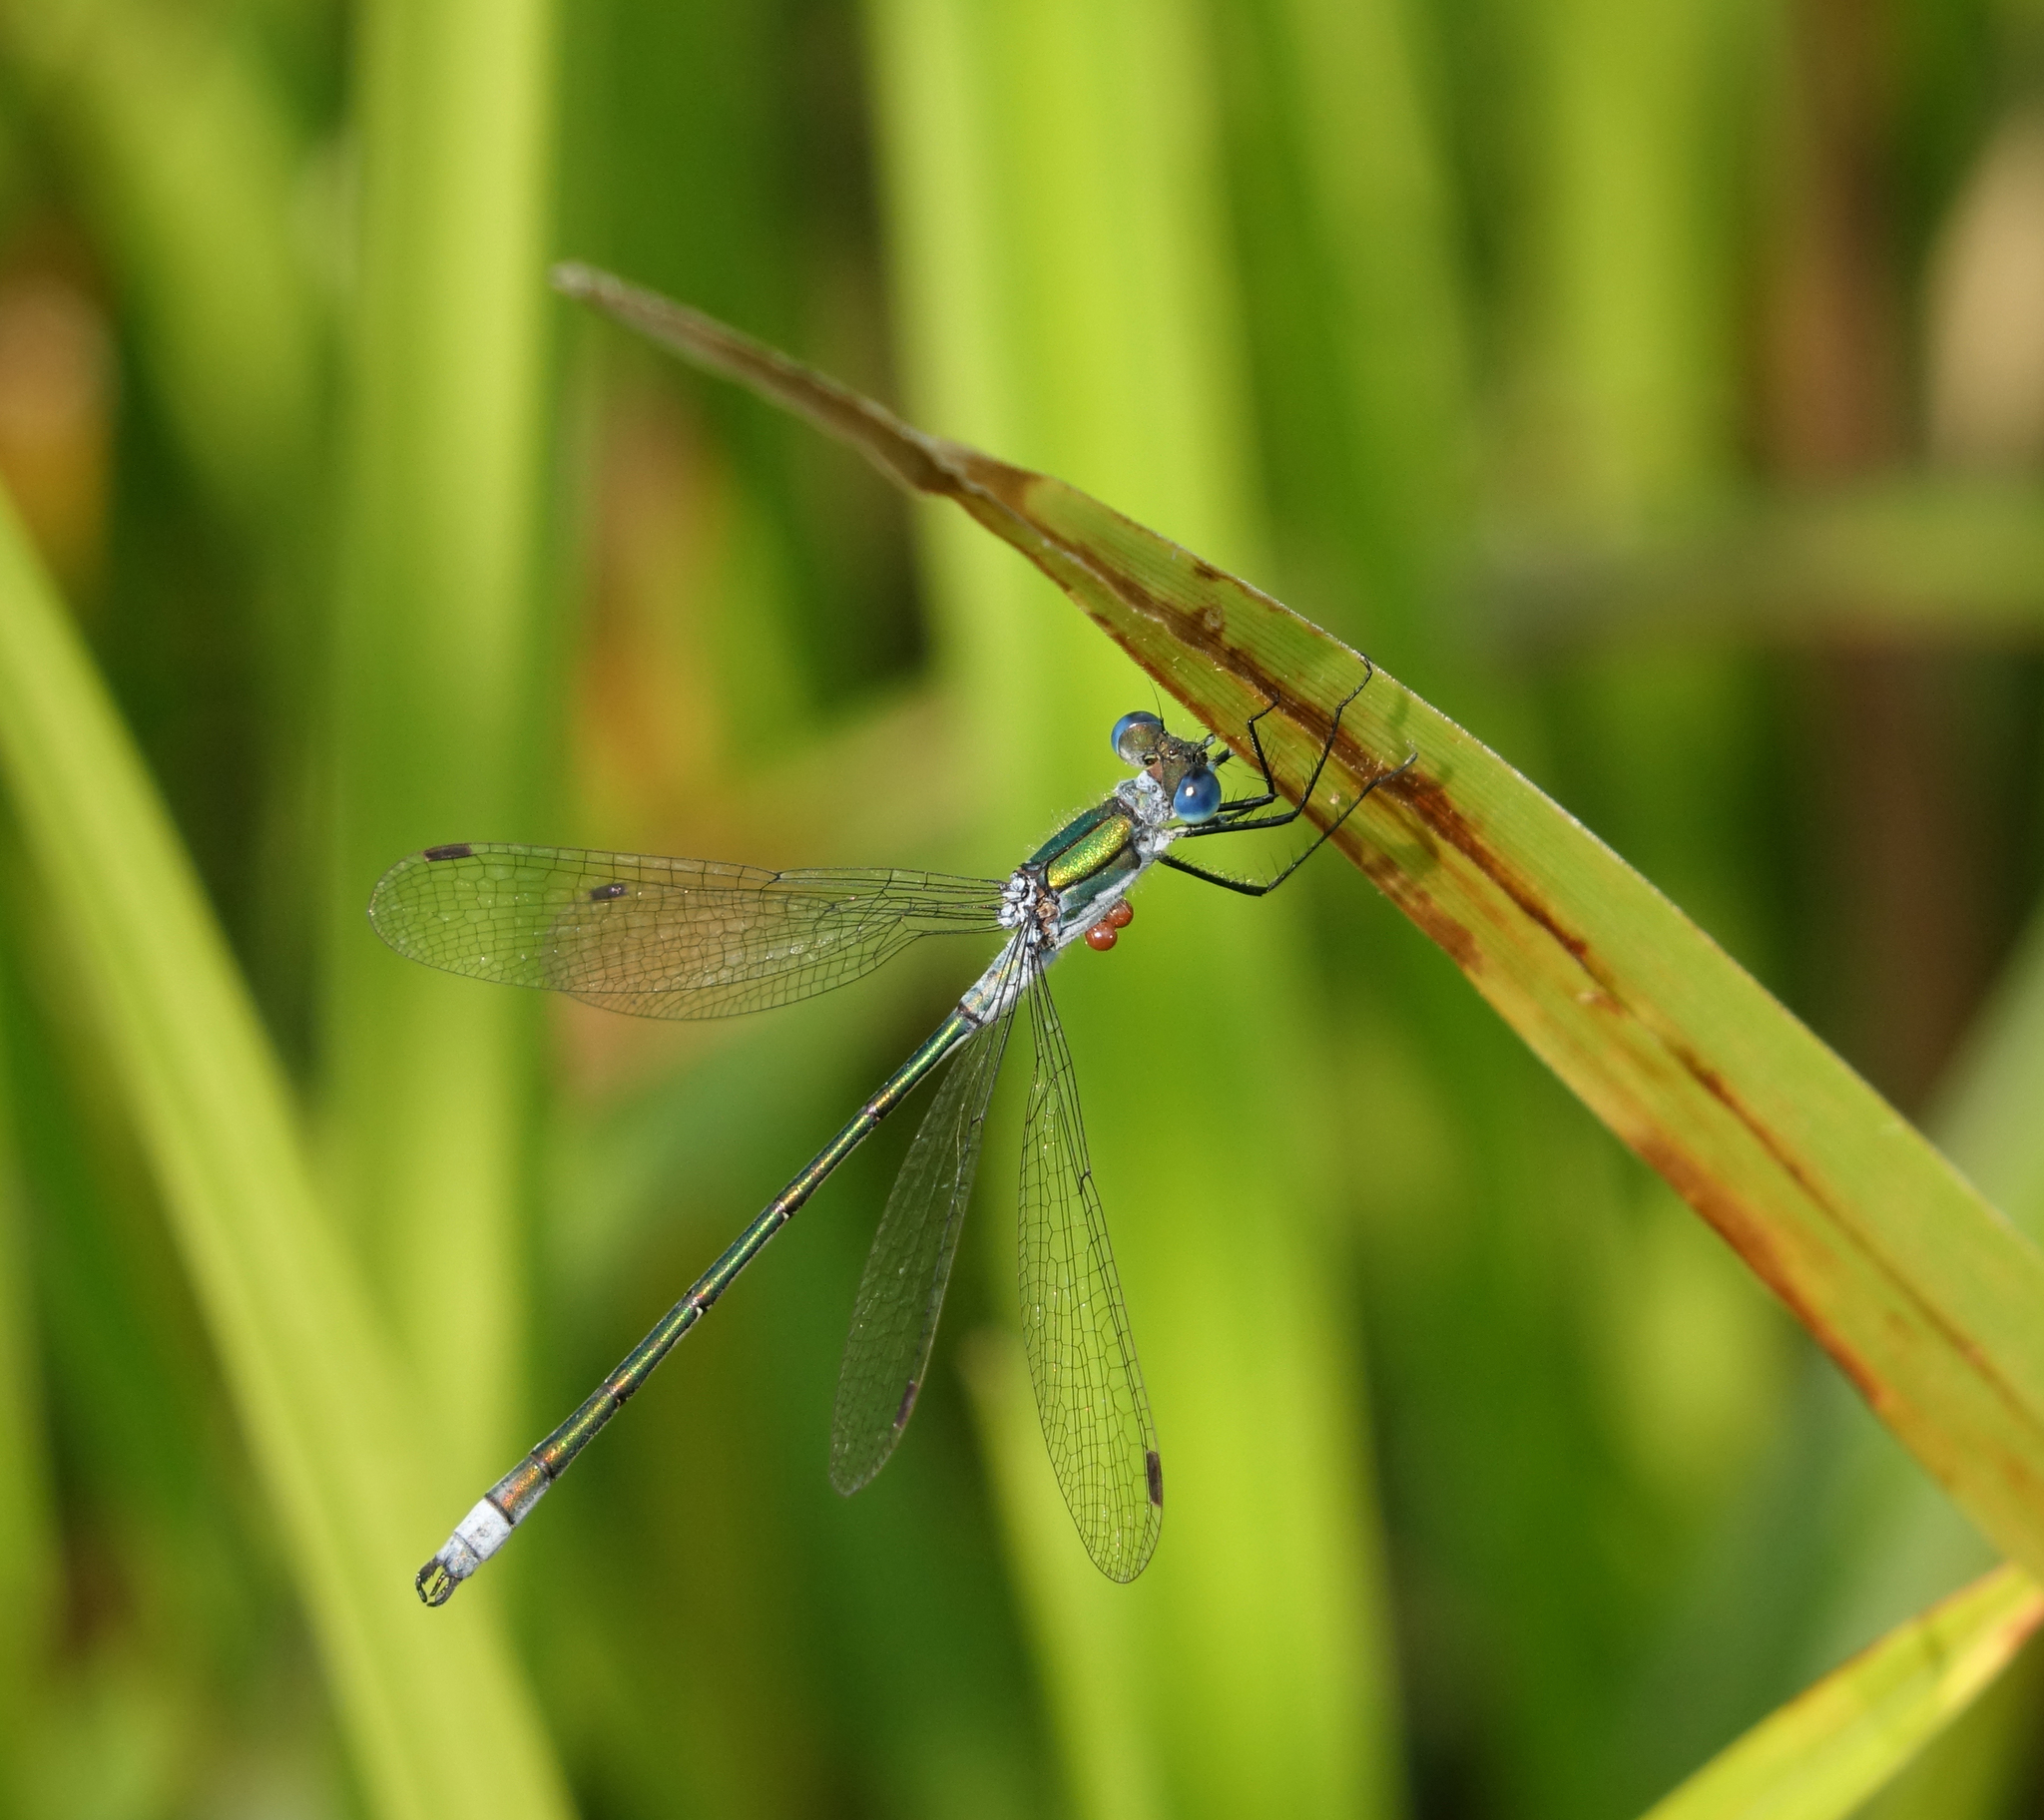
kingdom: Animalia
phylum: Arthropoda
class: Insecta
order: Odonata
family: Lestidae
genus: Lestes
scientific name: Lestes sponsa
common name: Common spreadwing
